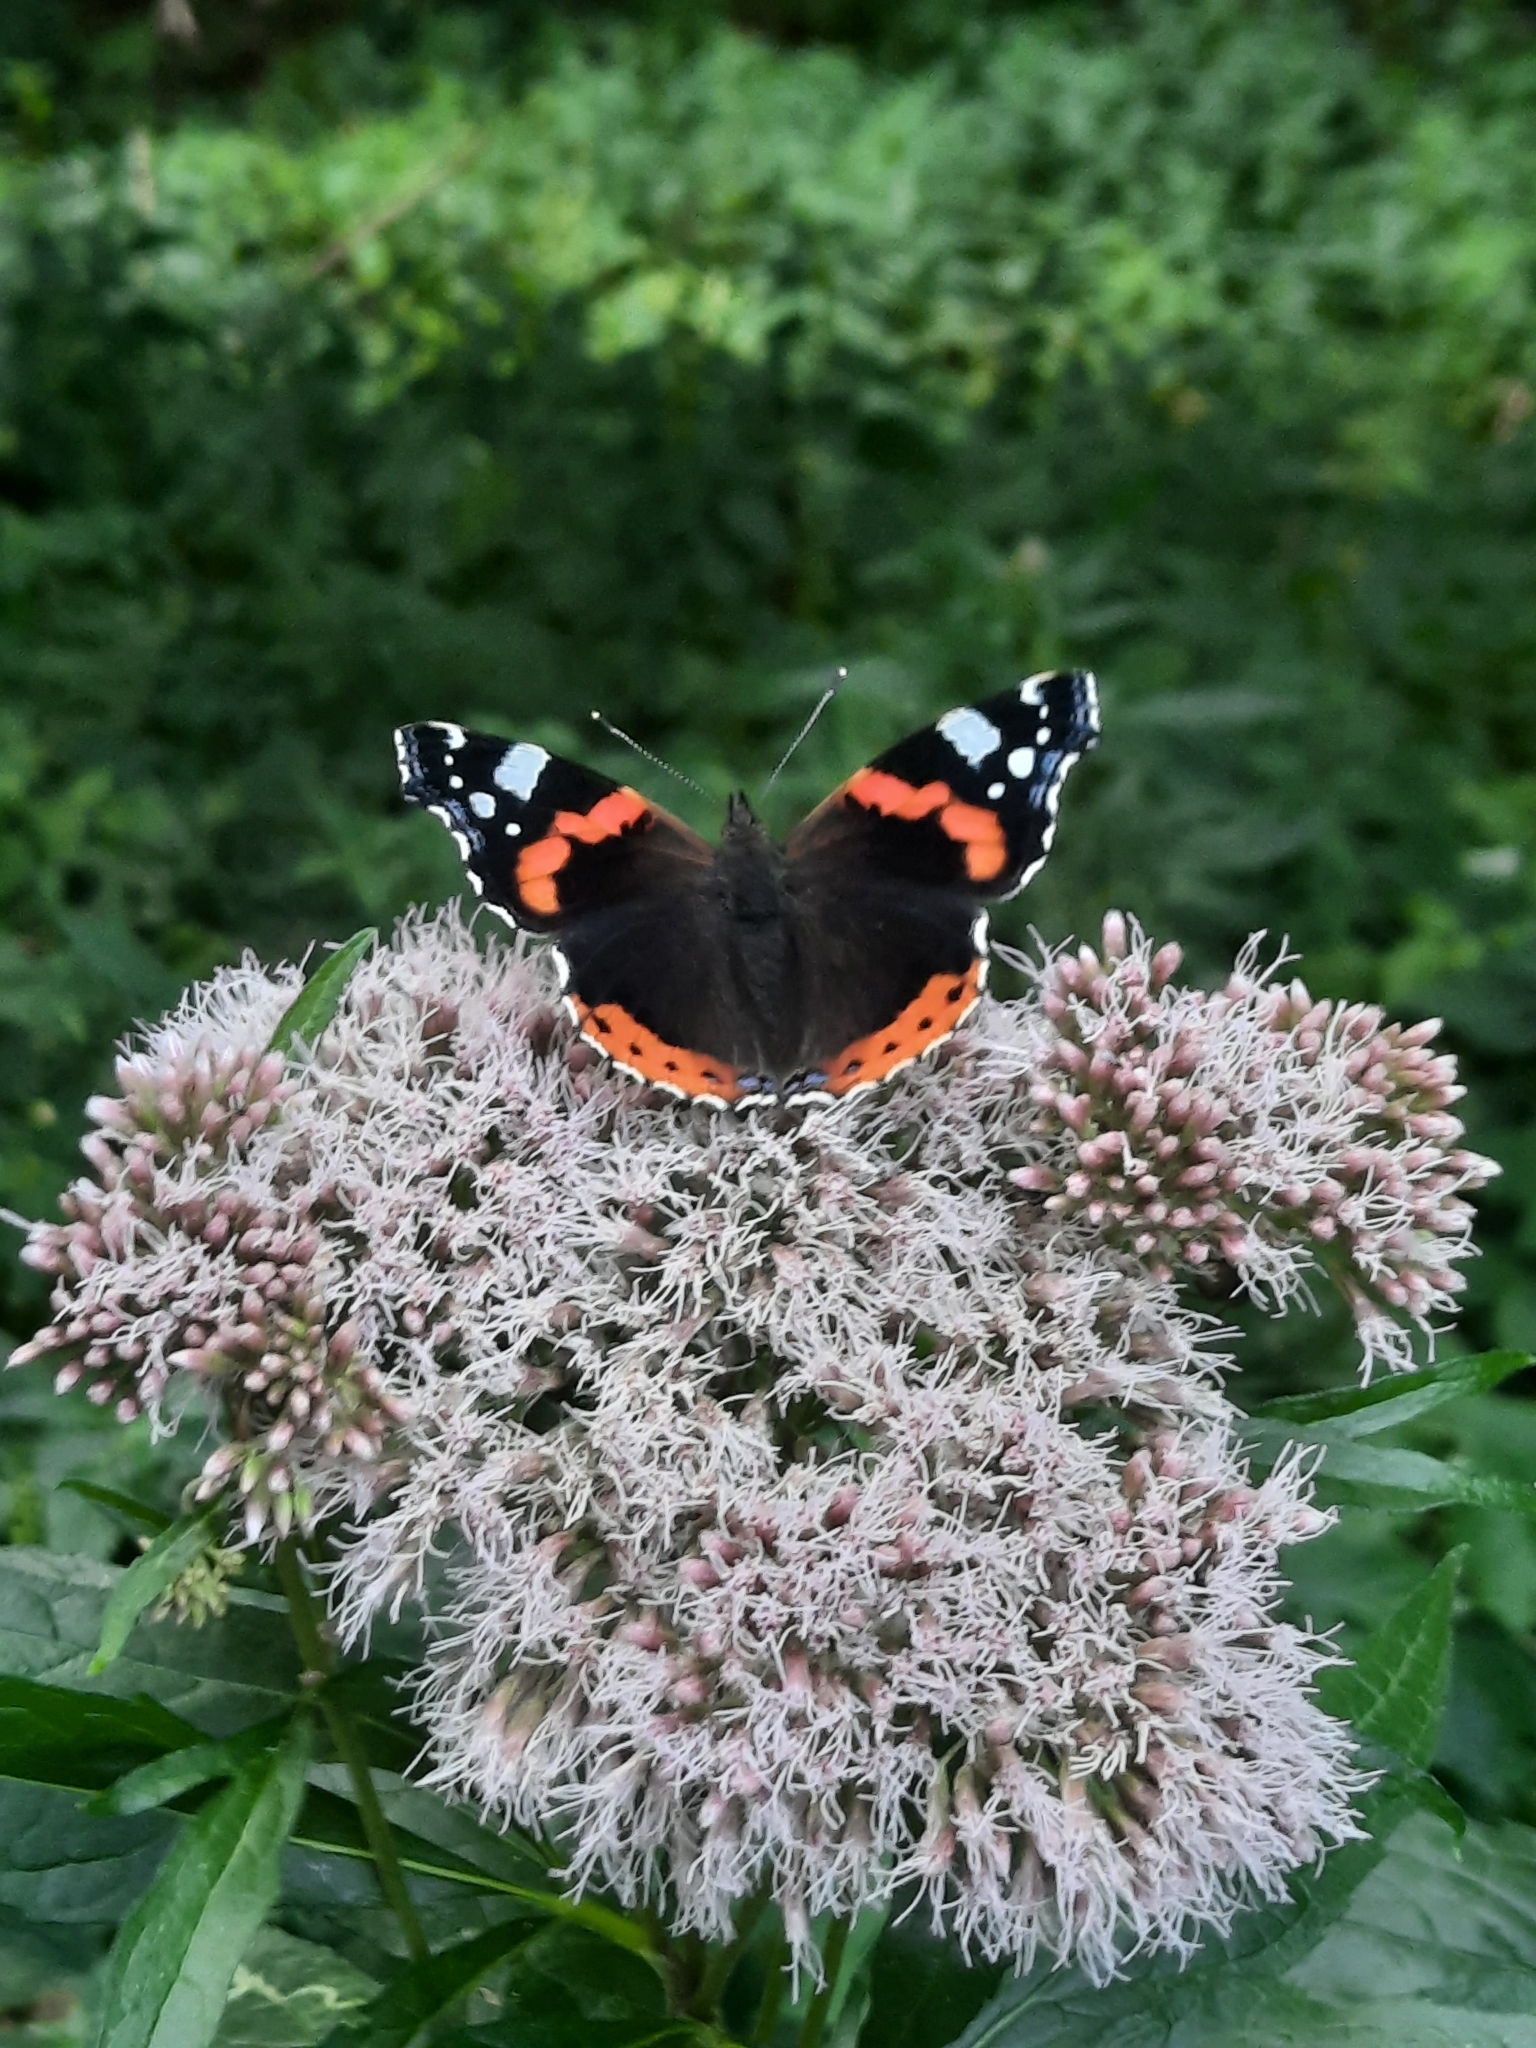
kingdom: Animalia
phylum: Arthropoda
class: Insecta
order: Lepidoptera
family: Nymphalidae
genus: Vanessa
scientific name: Vanessa atalanta
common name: Red admiral
